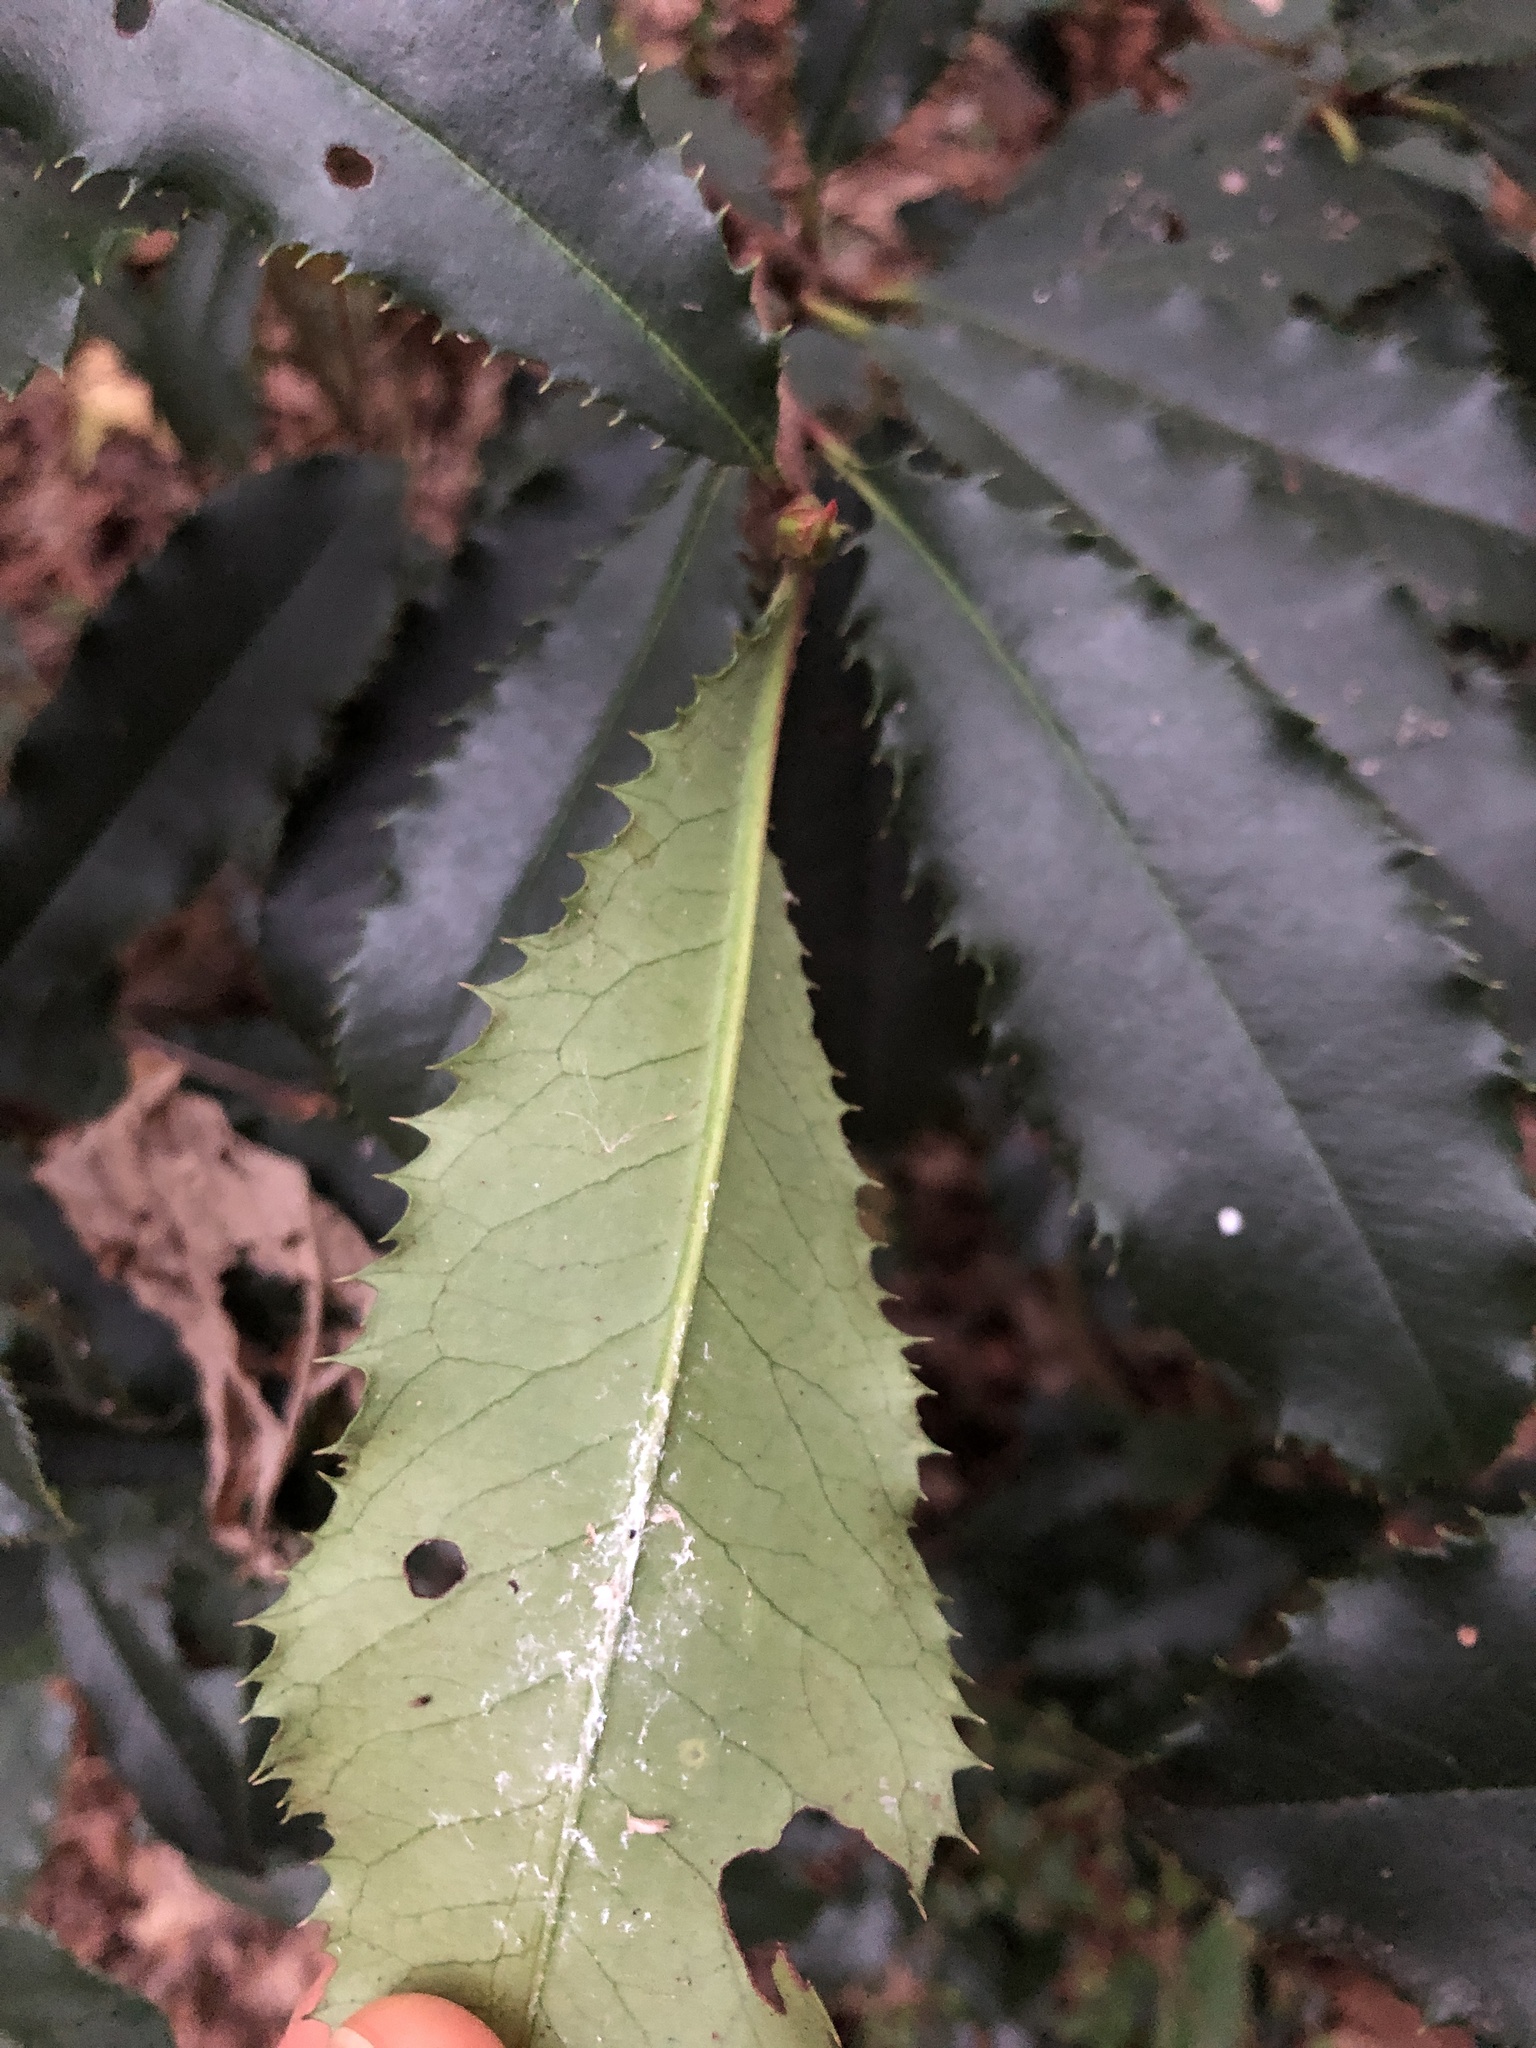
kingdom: Plantae
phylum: Tracheophyta
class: Magnoliopsida
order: Rosales
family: Rosaceae
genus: Photinia
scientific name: Photinia serratifolia
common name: Taiwanese photinia
